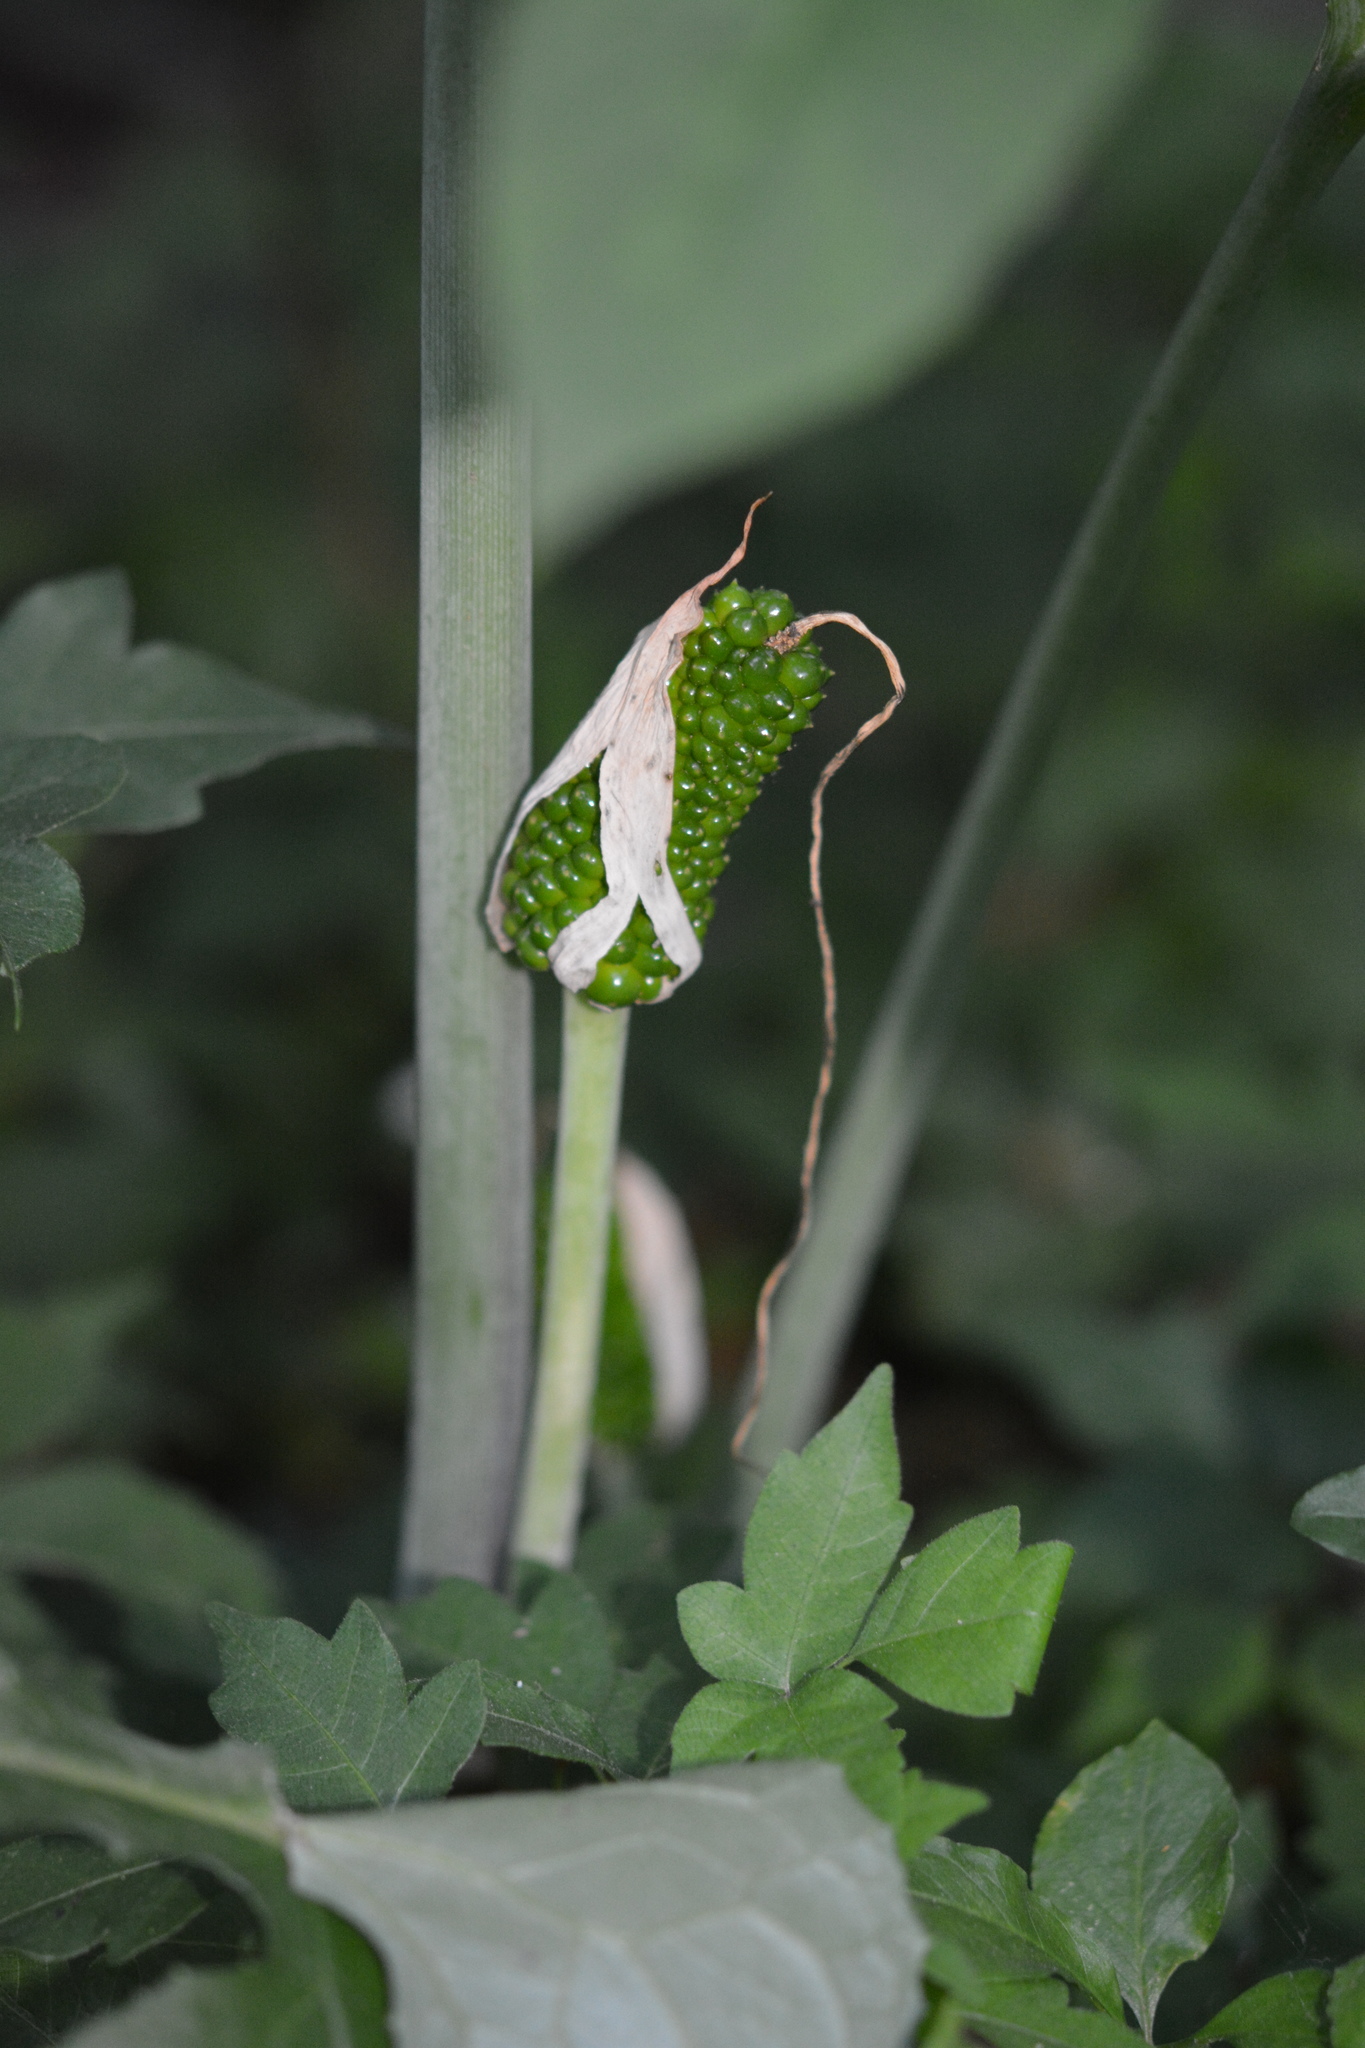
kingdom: Plantae
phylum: Tracheophyta
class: Liliopsida
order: Alismatales
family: Araceae
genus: Arisaema
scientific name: Arisaema dracontium
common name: Dragon-arum
